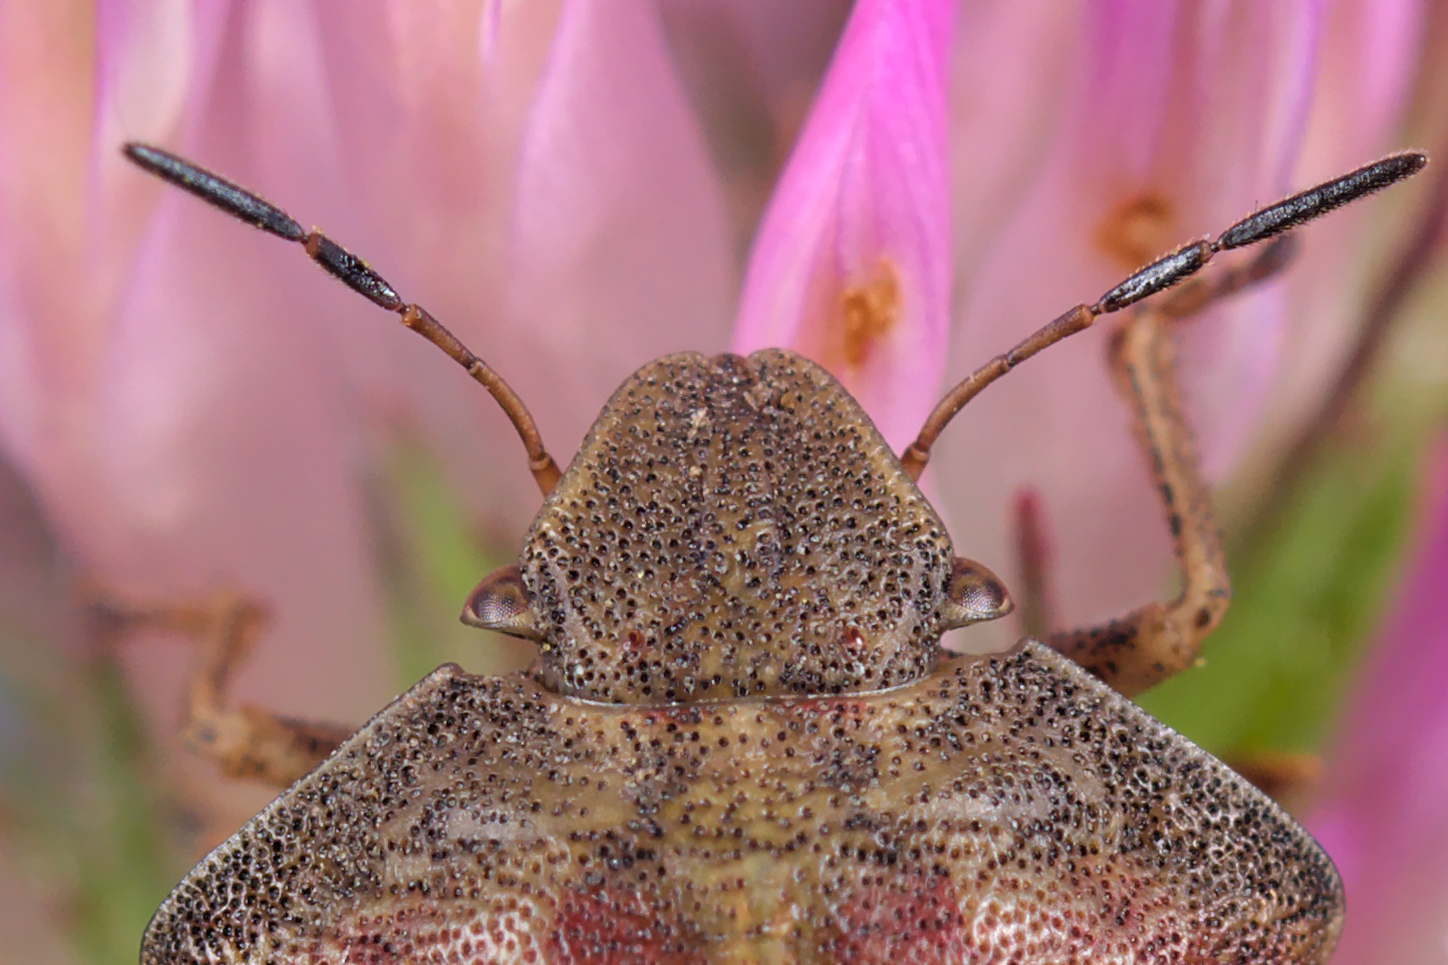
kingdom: Animalia
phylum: Arthropoda
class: Insecta
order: Hemiptera
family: Scutelleridae
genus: Eurygaster
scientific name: Eurygaster testudinaria
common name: Tortoise bug
